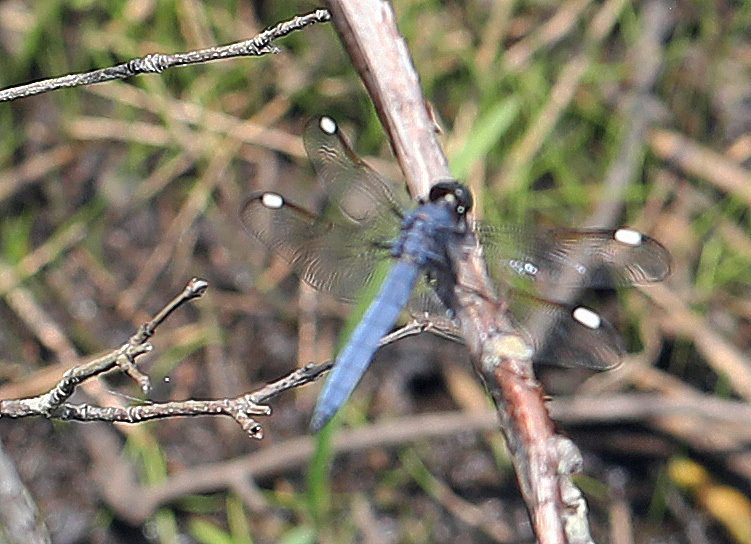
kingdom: Animalia
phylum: Arthropoda
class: Insecta
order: Odonata
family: Libellulidae
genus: Libellula
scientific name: Libellula cyanea
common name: Spangled skimmer
